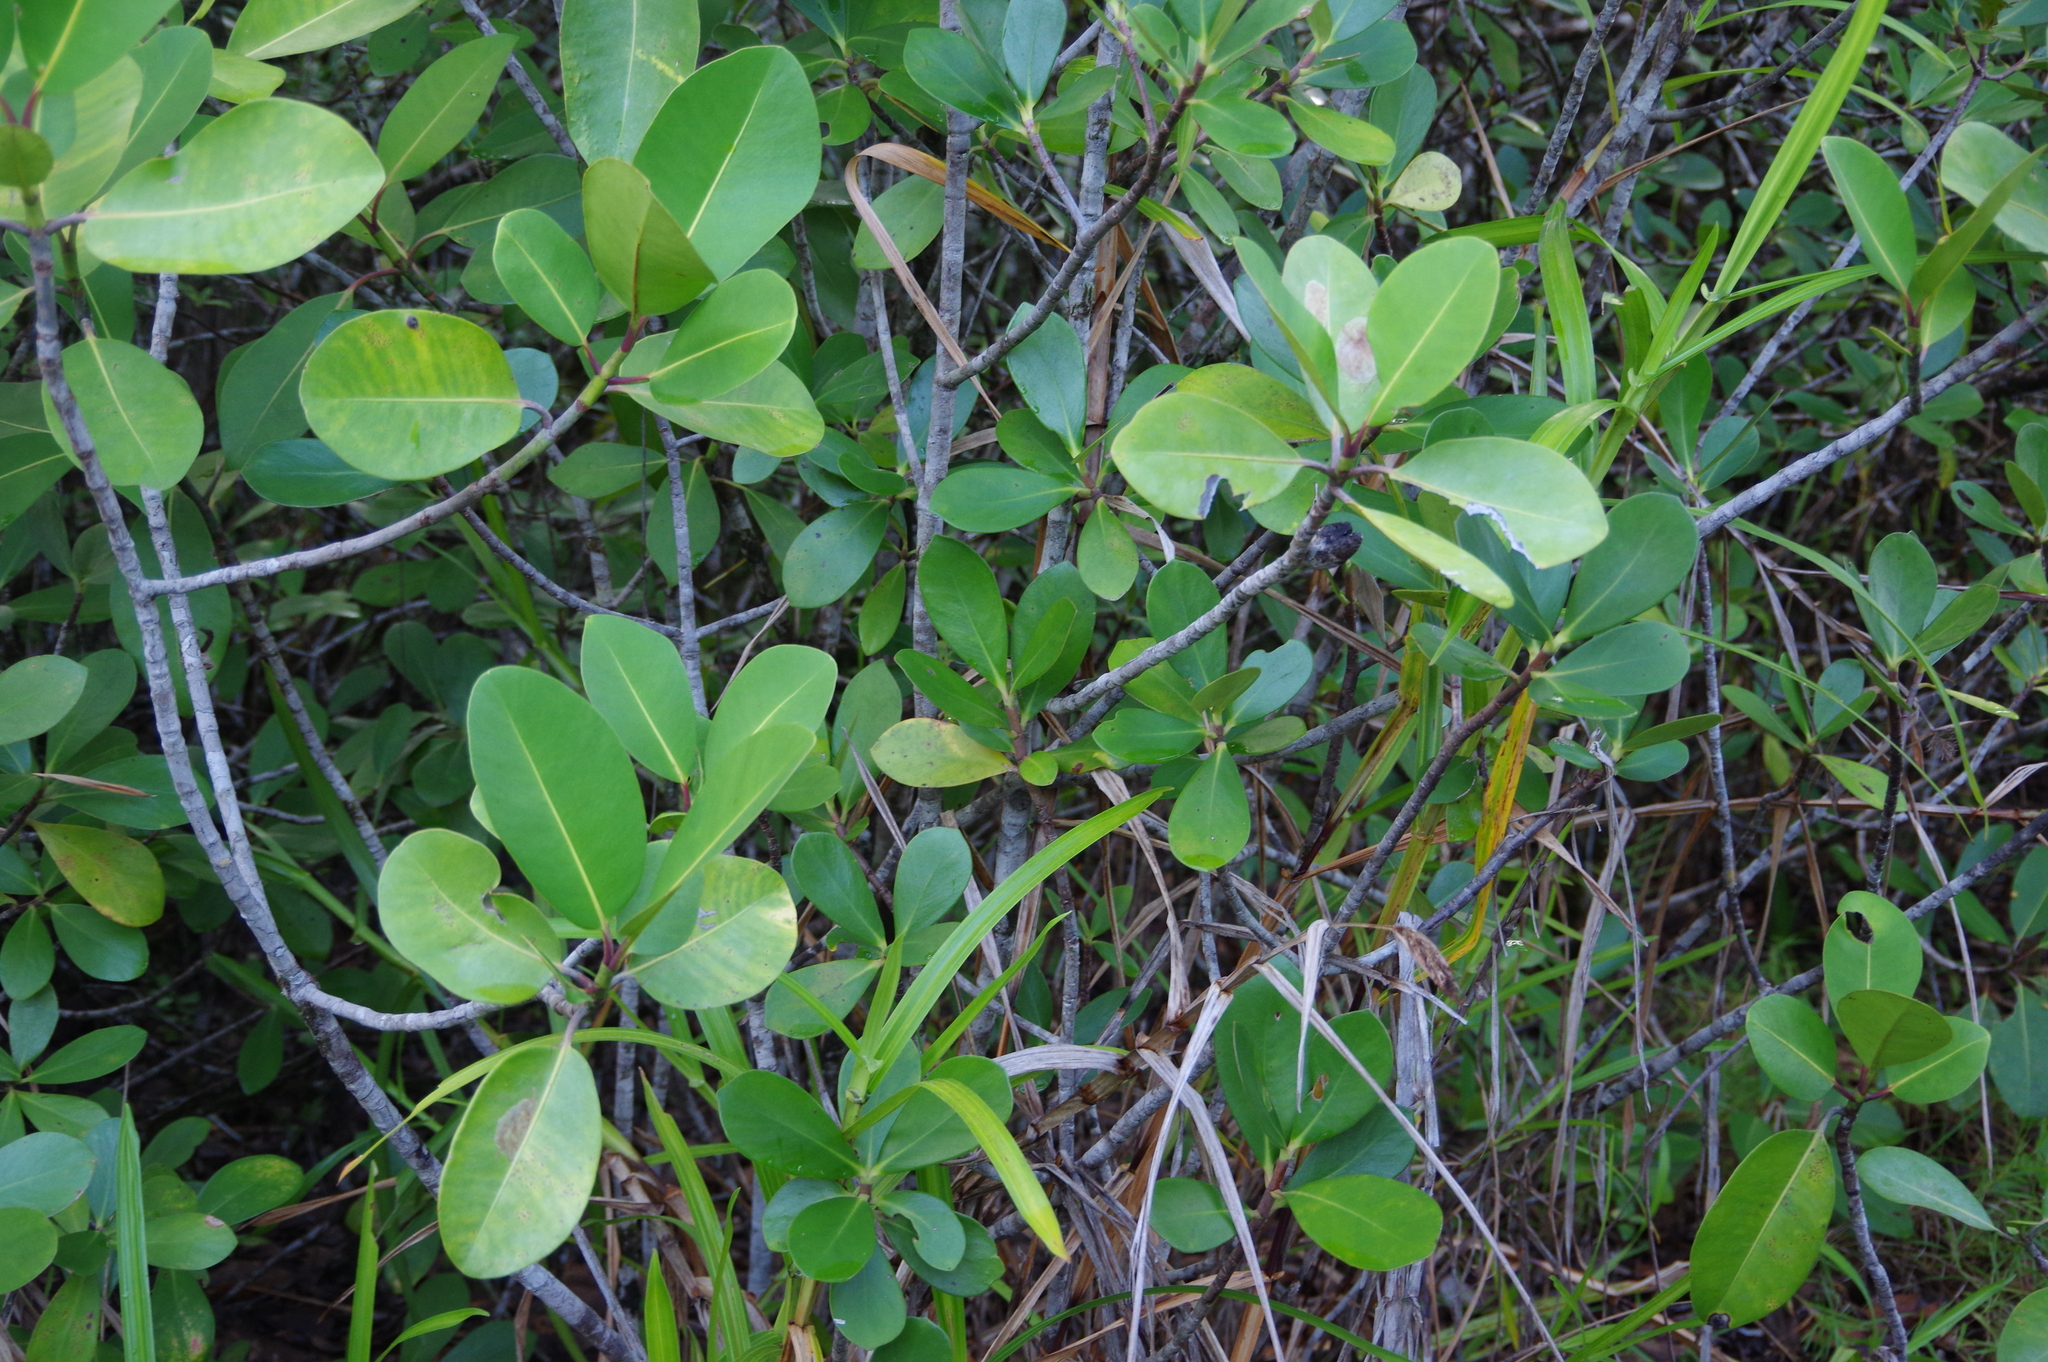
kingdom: Plantae
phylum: Tracheophyta
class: Magnoliopsida
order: Malpighiales
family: Clusiaceae
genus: Clusia
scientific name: Clusia nemorosa
